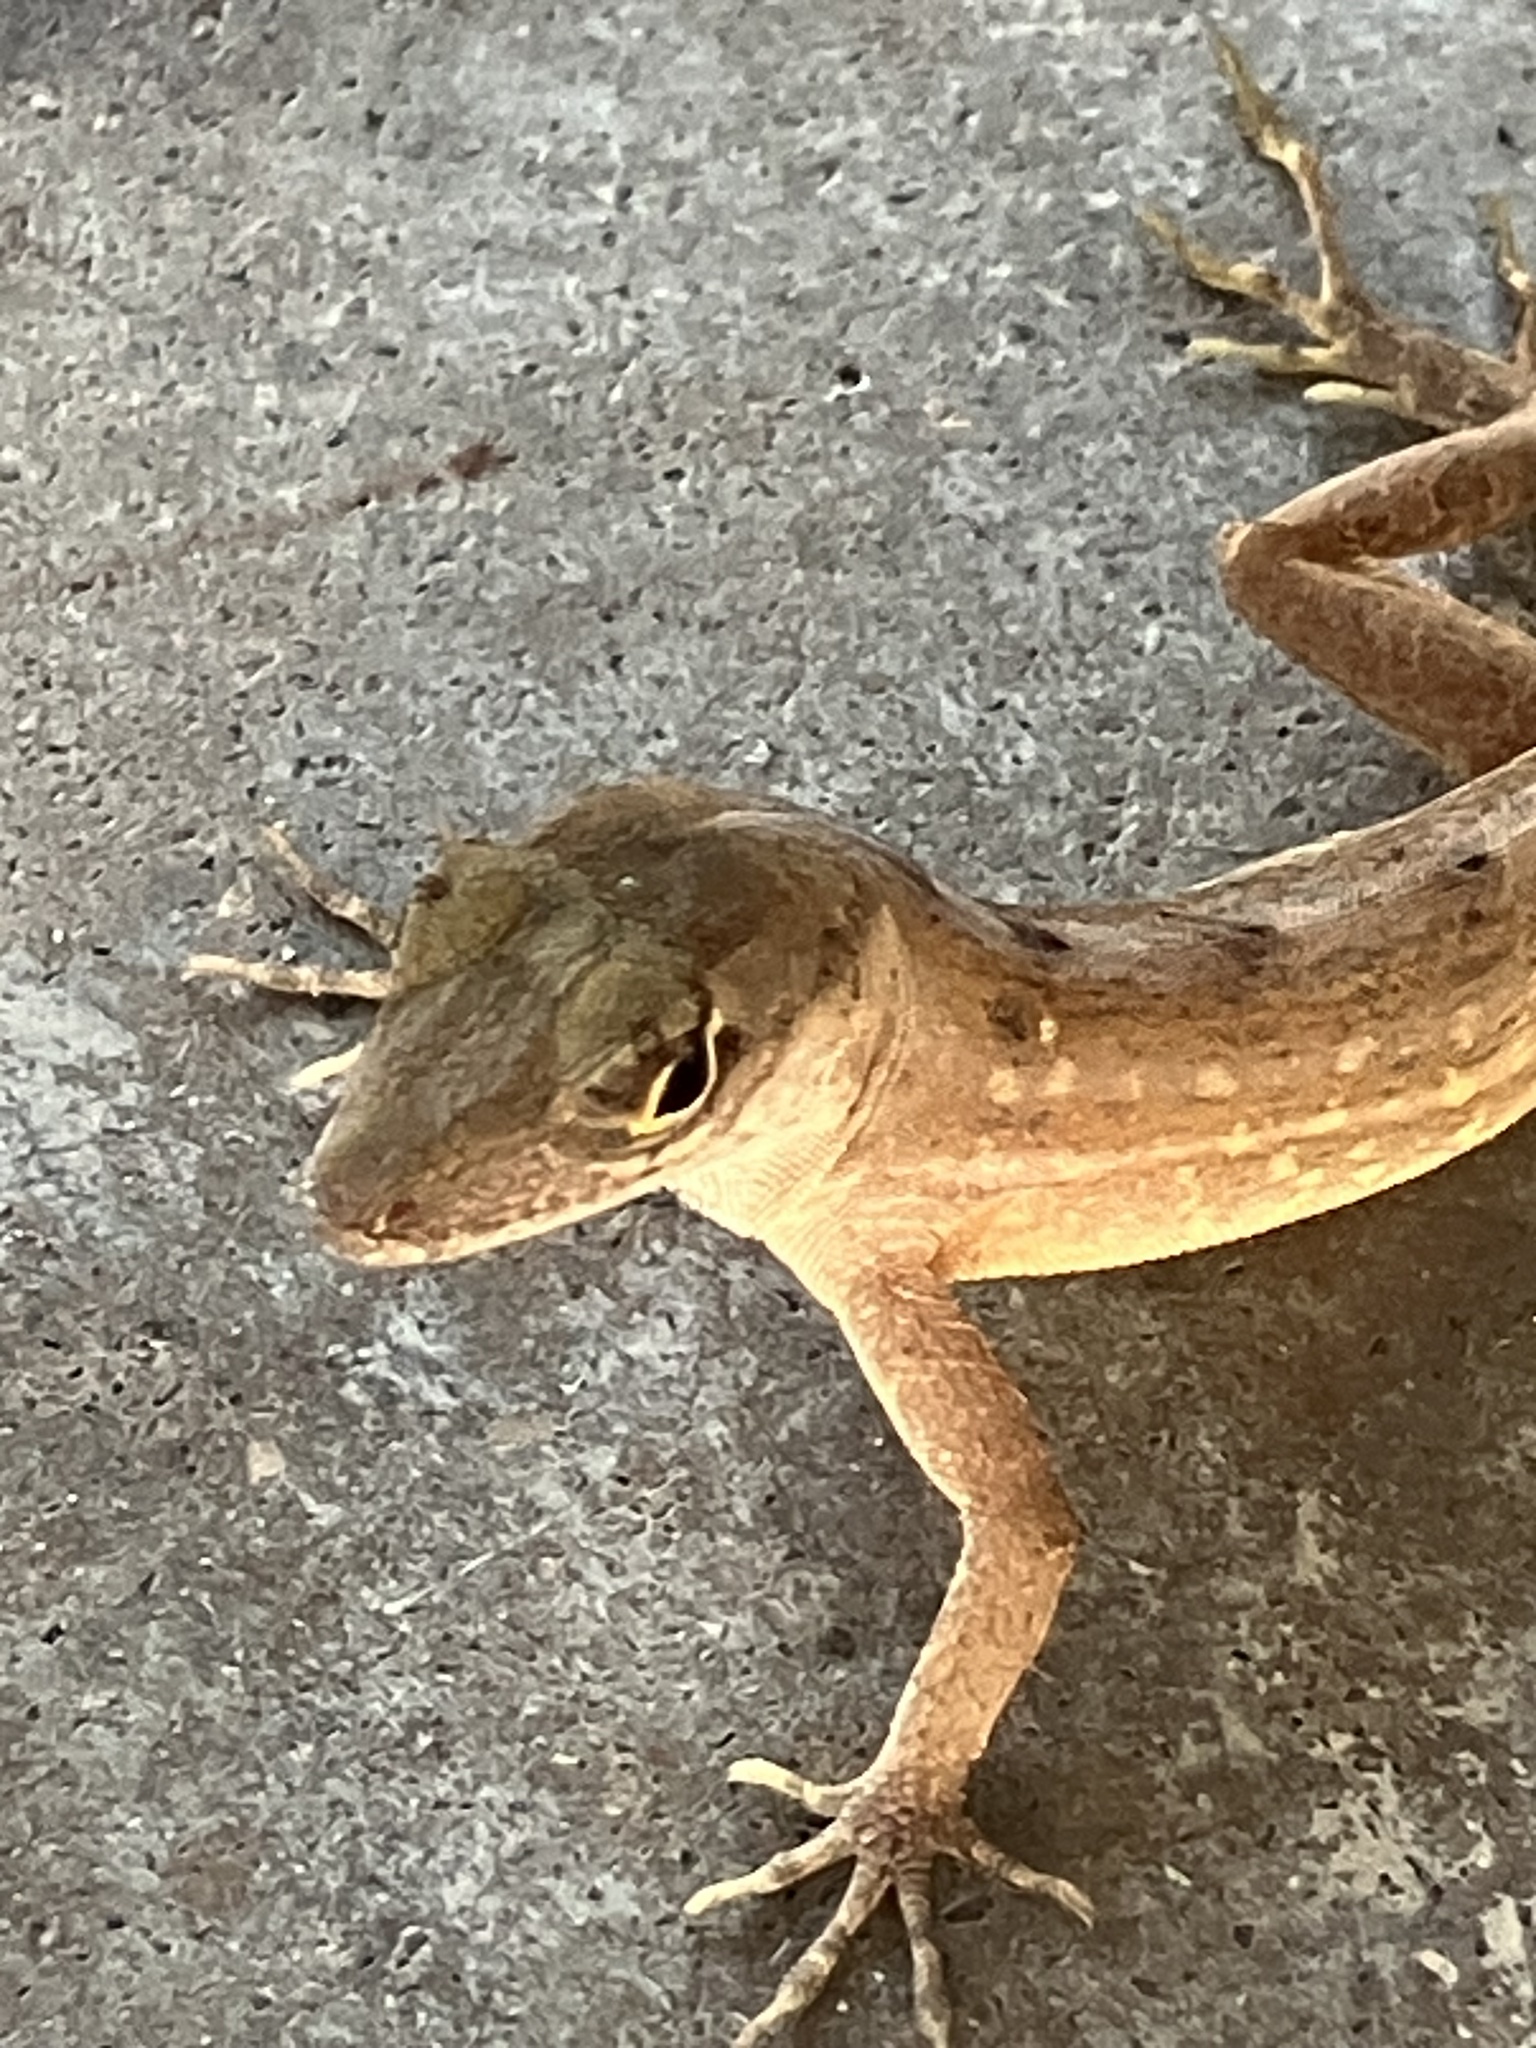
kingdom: Animalia
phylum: Chordata
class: Squamata
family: Dactyloidae
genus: Anolis
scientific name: Anolis sagrei
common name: Brown anole
